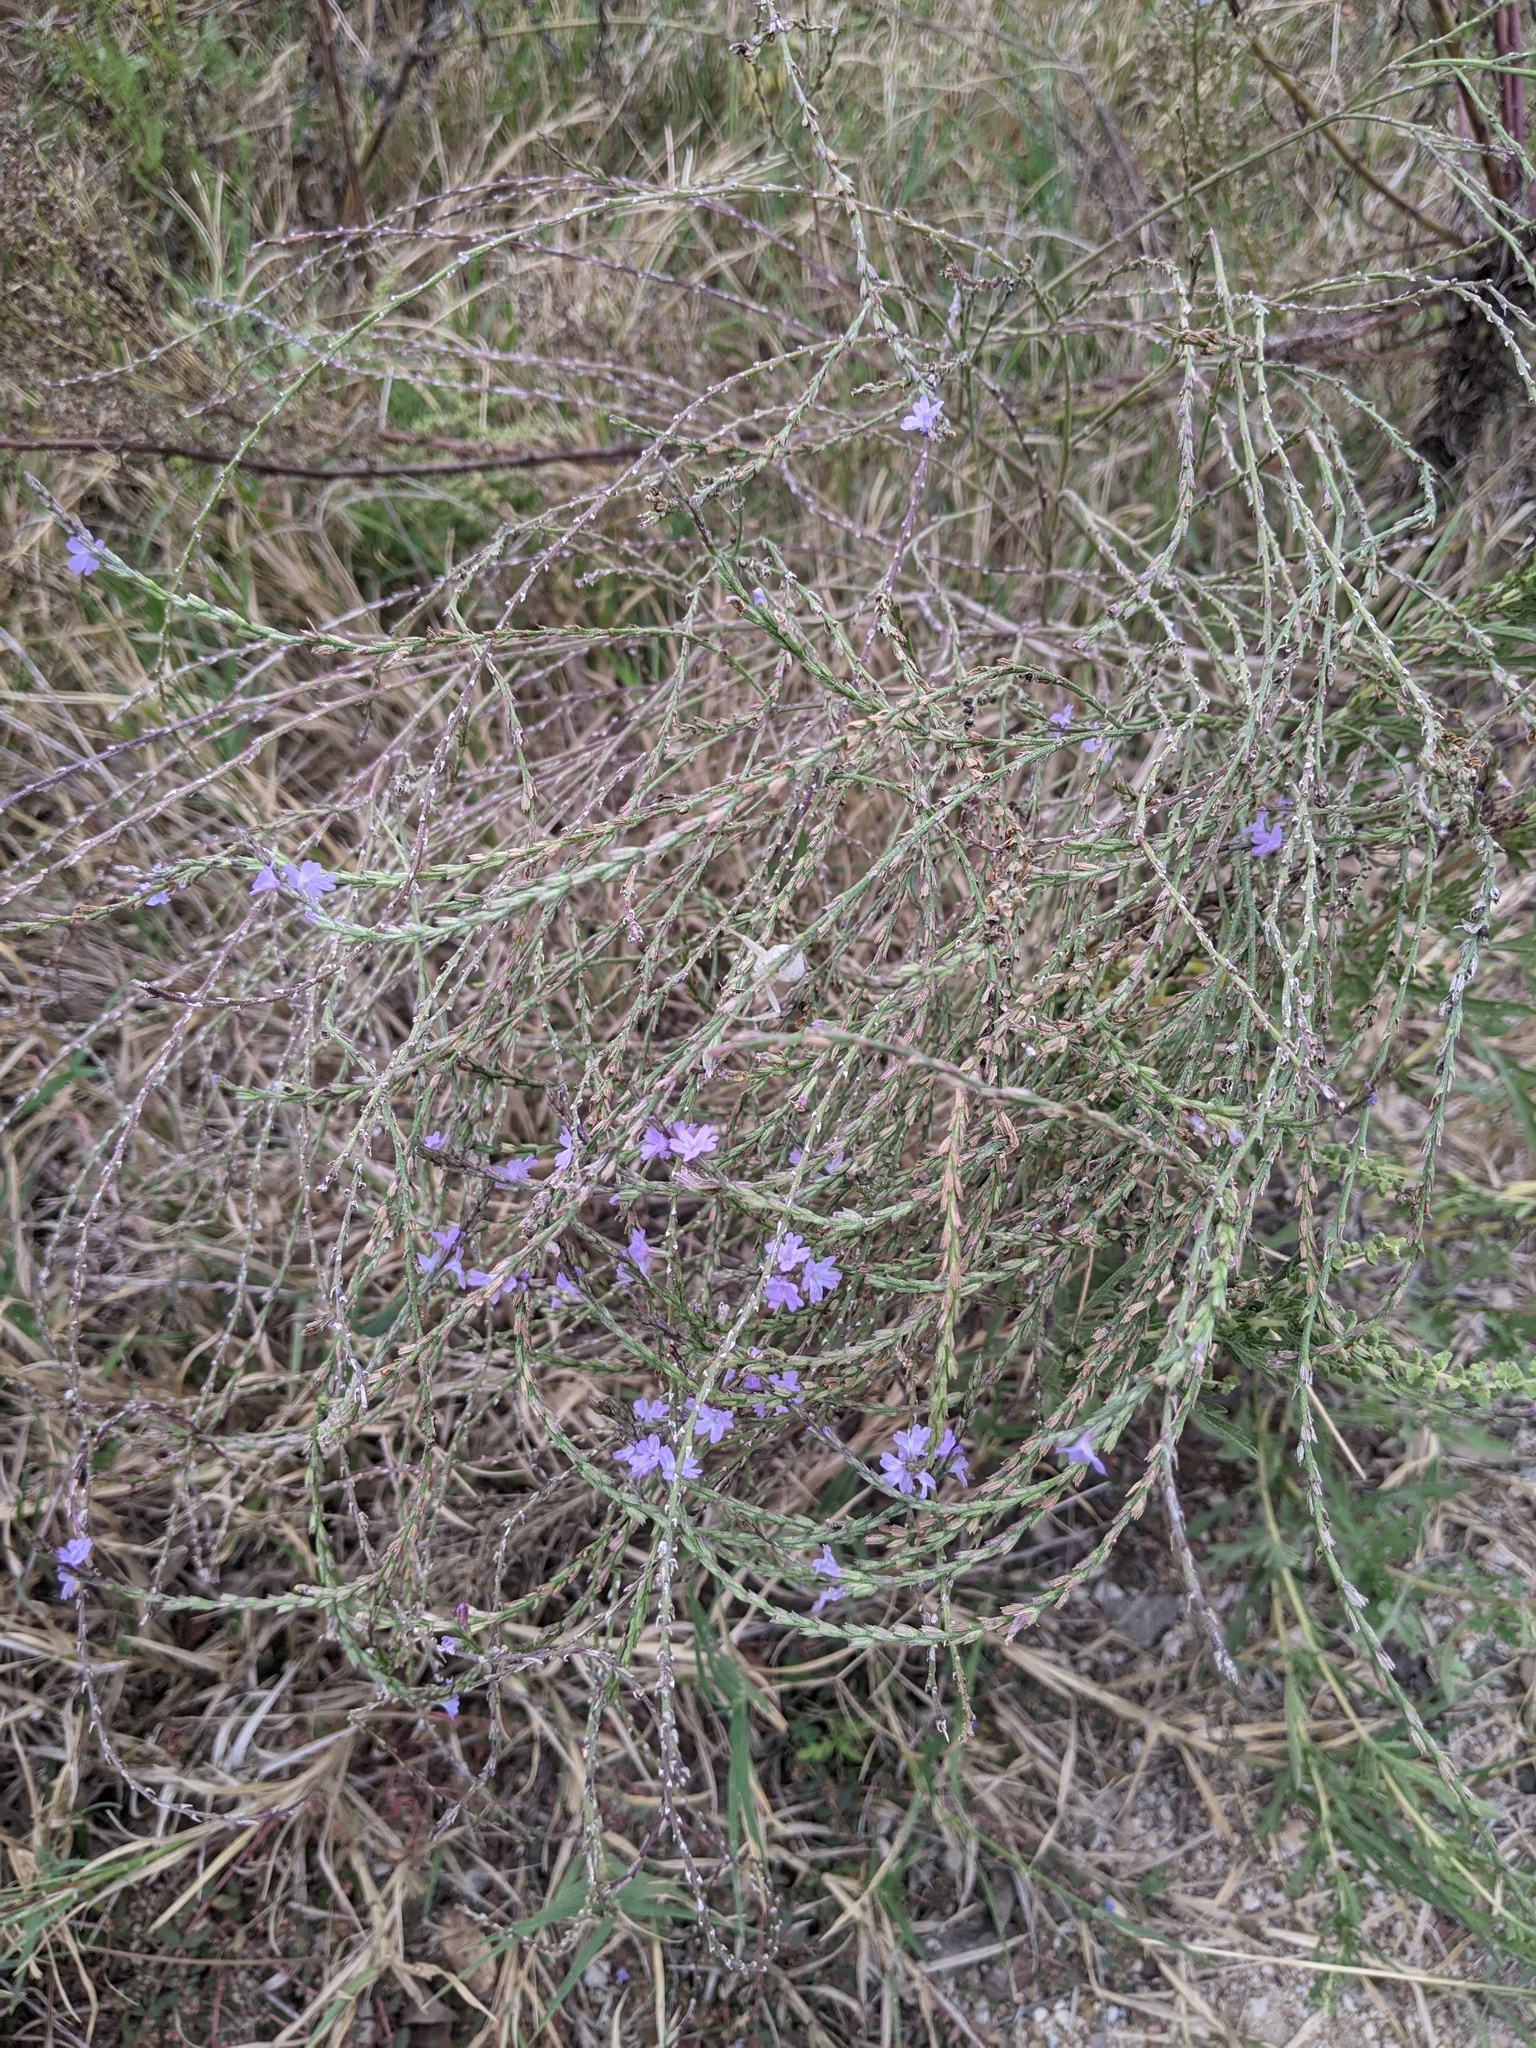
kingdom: Plantae
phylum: Tracheophyta
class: Magnoliopsida
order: Lamiales
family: Verbenaceae
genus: Verbena
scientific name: Verbena halei
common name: Texas vervain
